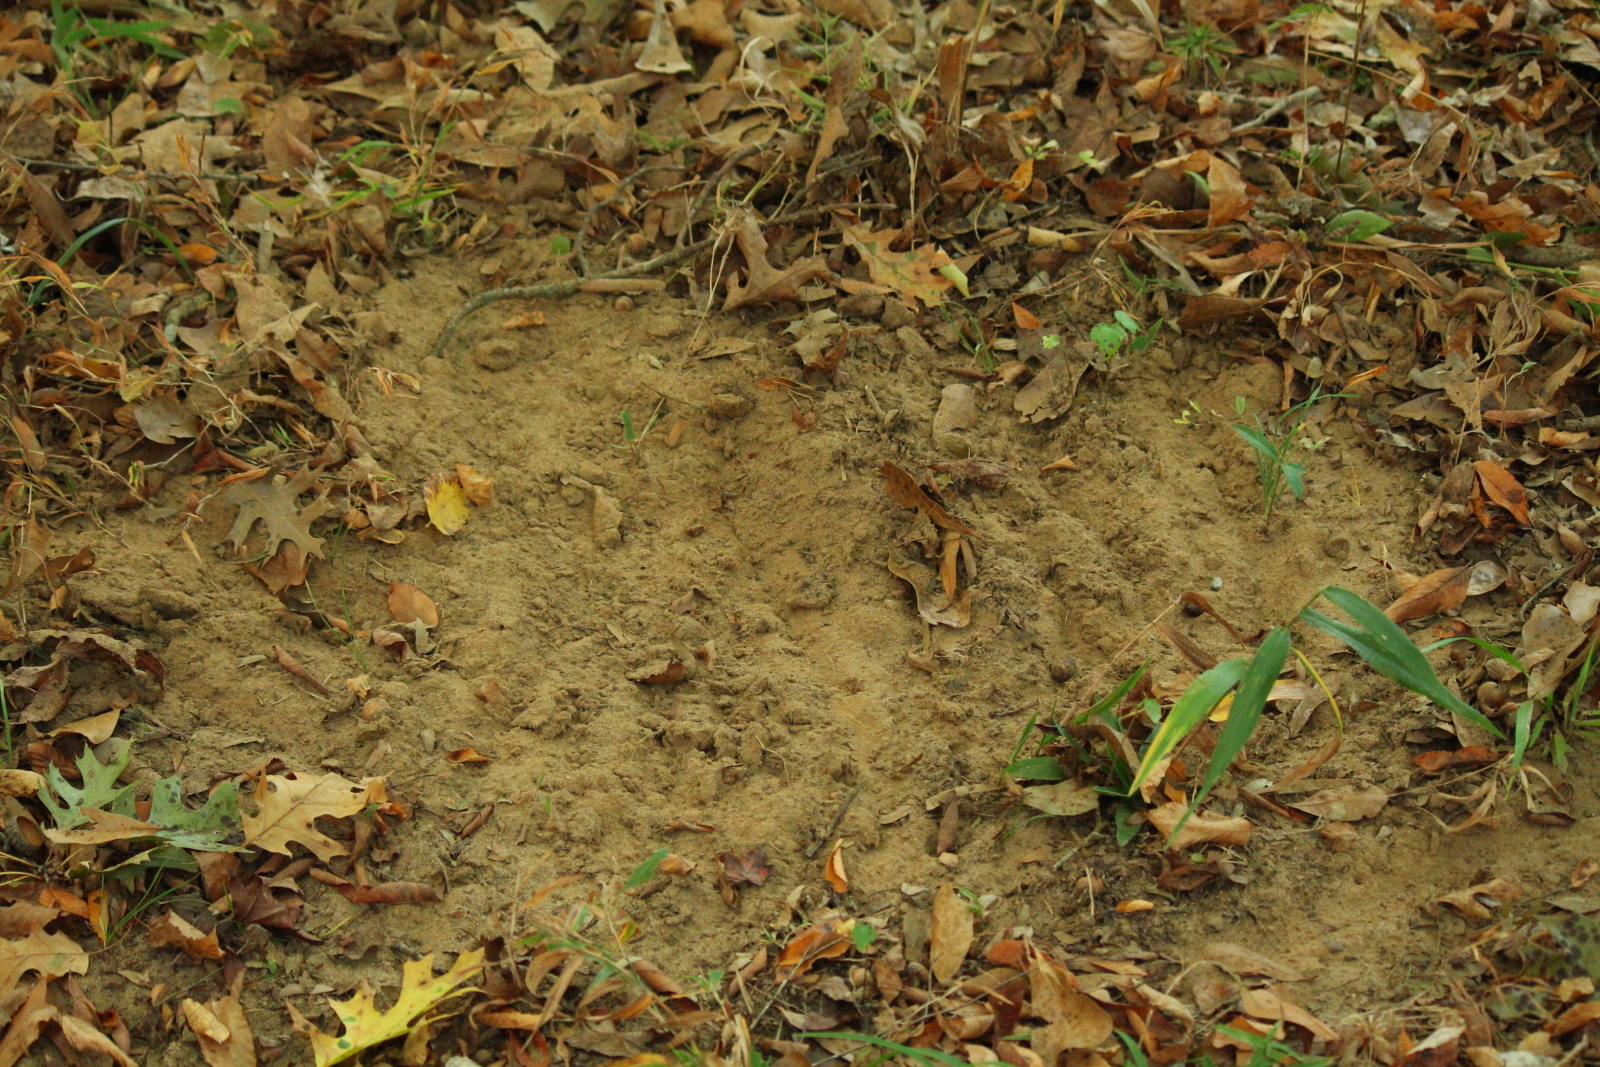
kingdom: Animalia
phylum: Chordata
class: Mammalia
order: Artiodactyla
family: Cervidae
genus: Odocoileus
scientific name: Odocoileus virginianus
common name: White-tailed deer
